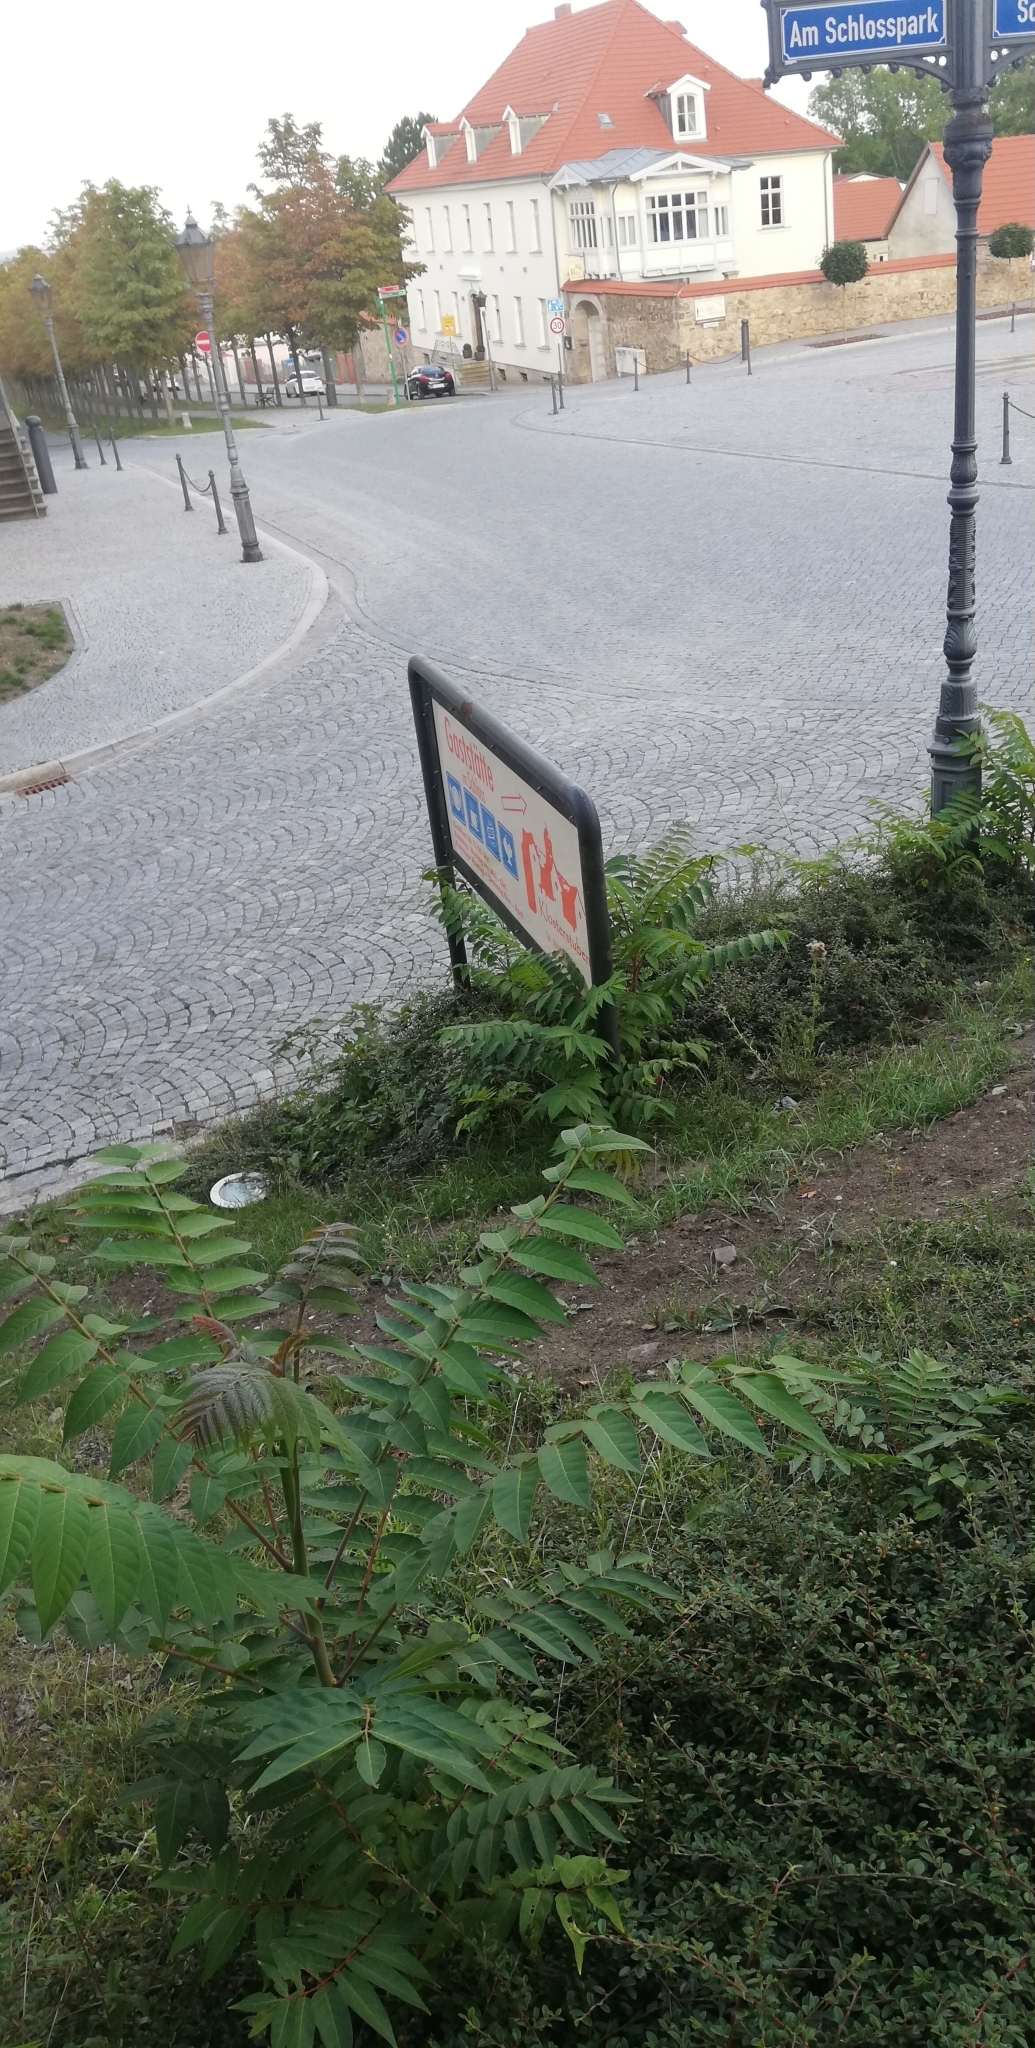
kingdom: Plantae
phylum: Tracheophyta
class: Magnoliopsida
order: Sapindales
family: Simaroubaceae
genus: Ailanthus
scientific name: Ailanthus altissima
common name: Tree-of-heaven
